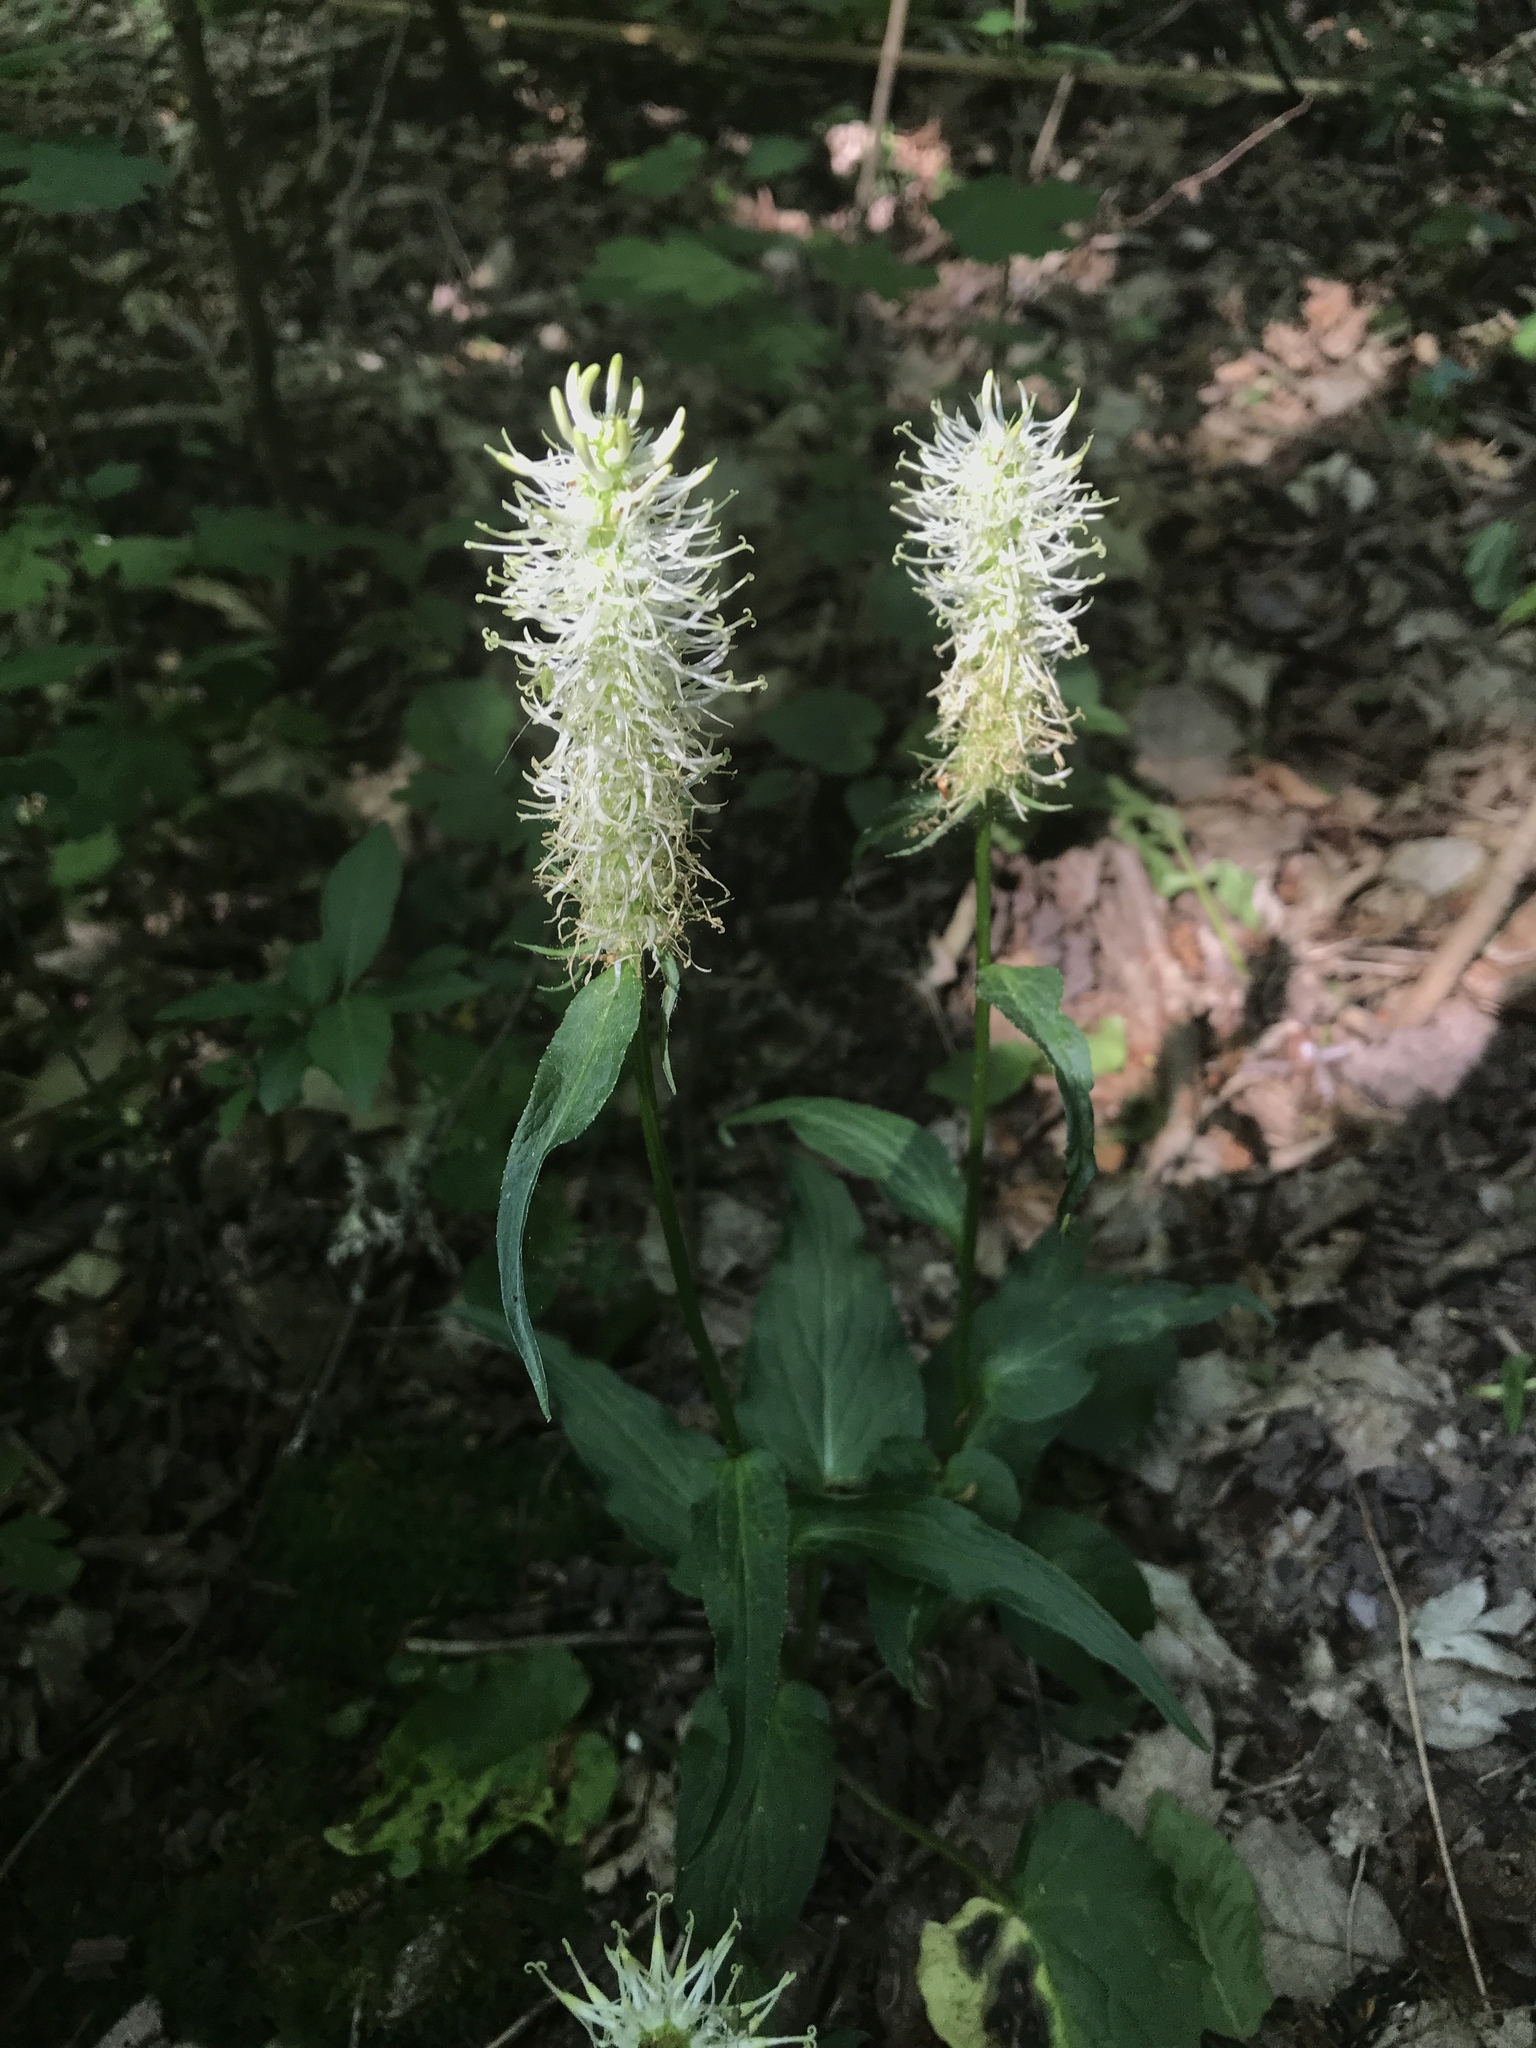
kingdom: Plantae
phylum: Tracheophyta
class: Magnoliopsida
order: Asterales
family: Campanulaceae
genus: Phyteuma
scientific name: Phyteuma spicatum
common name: Spiked rampion
